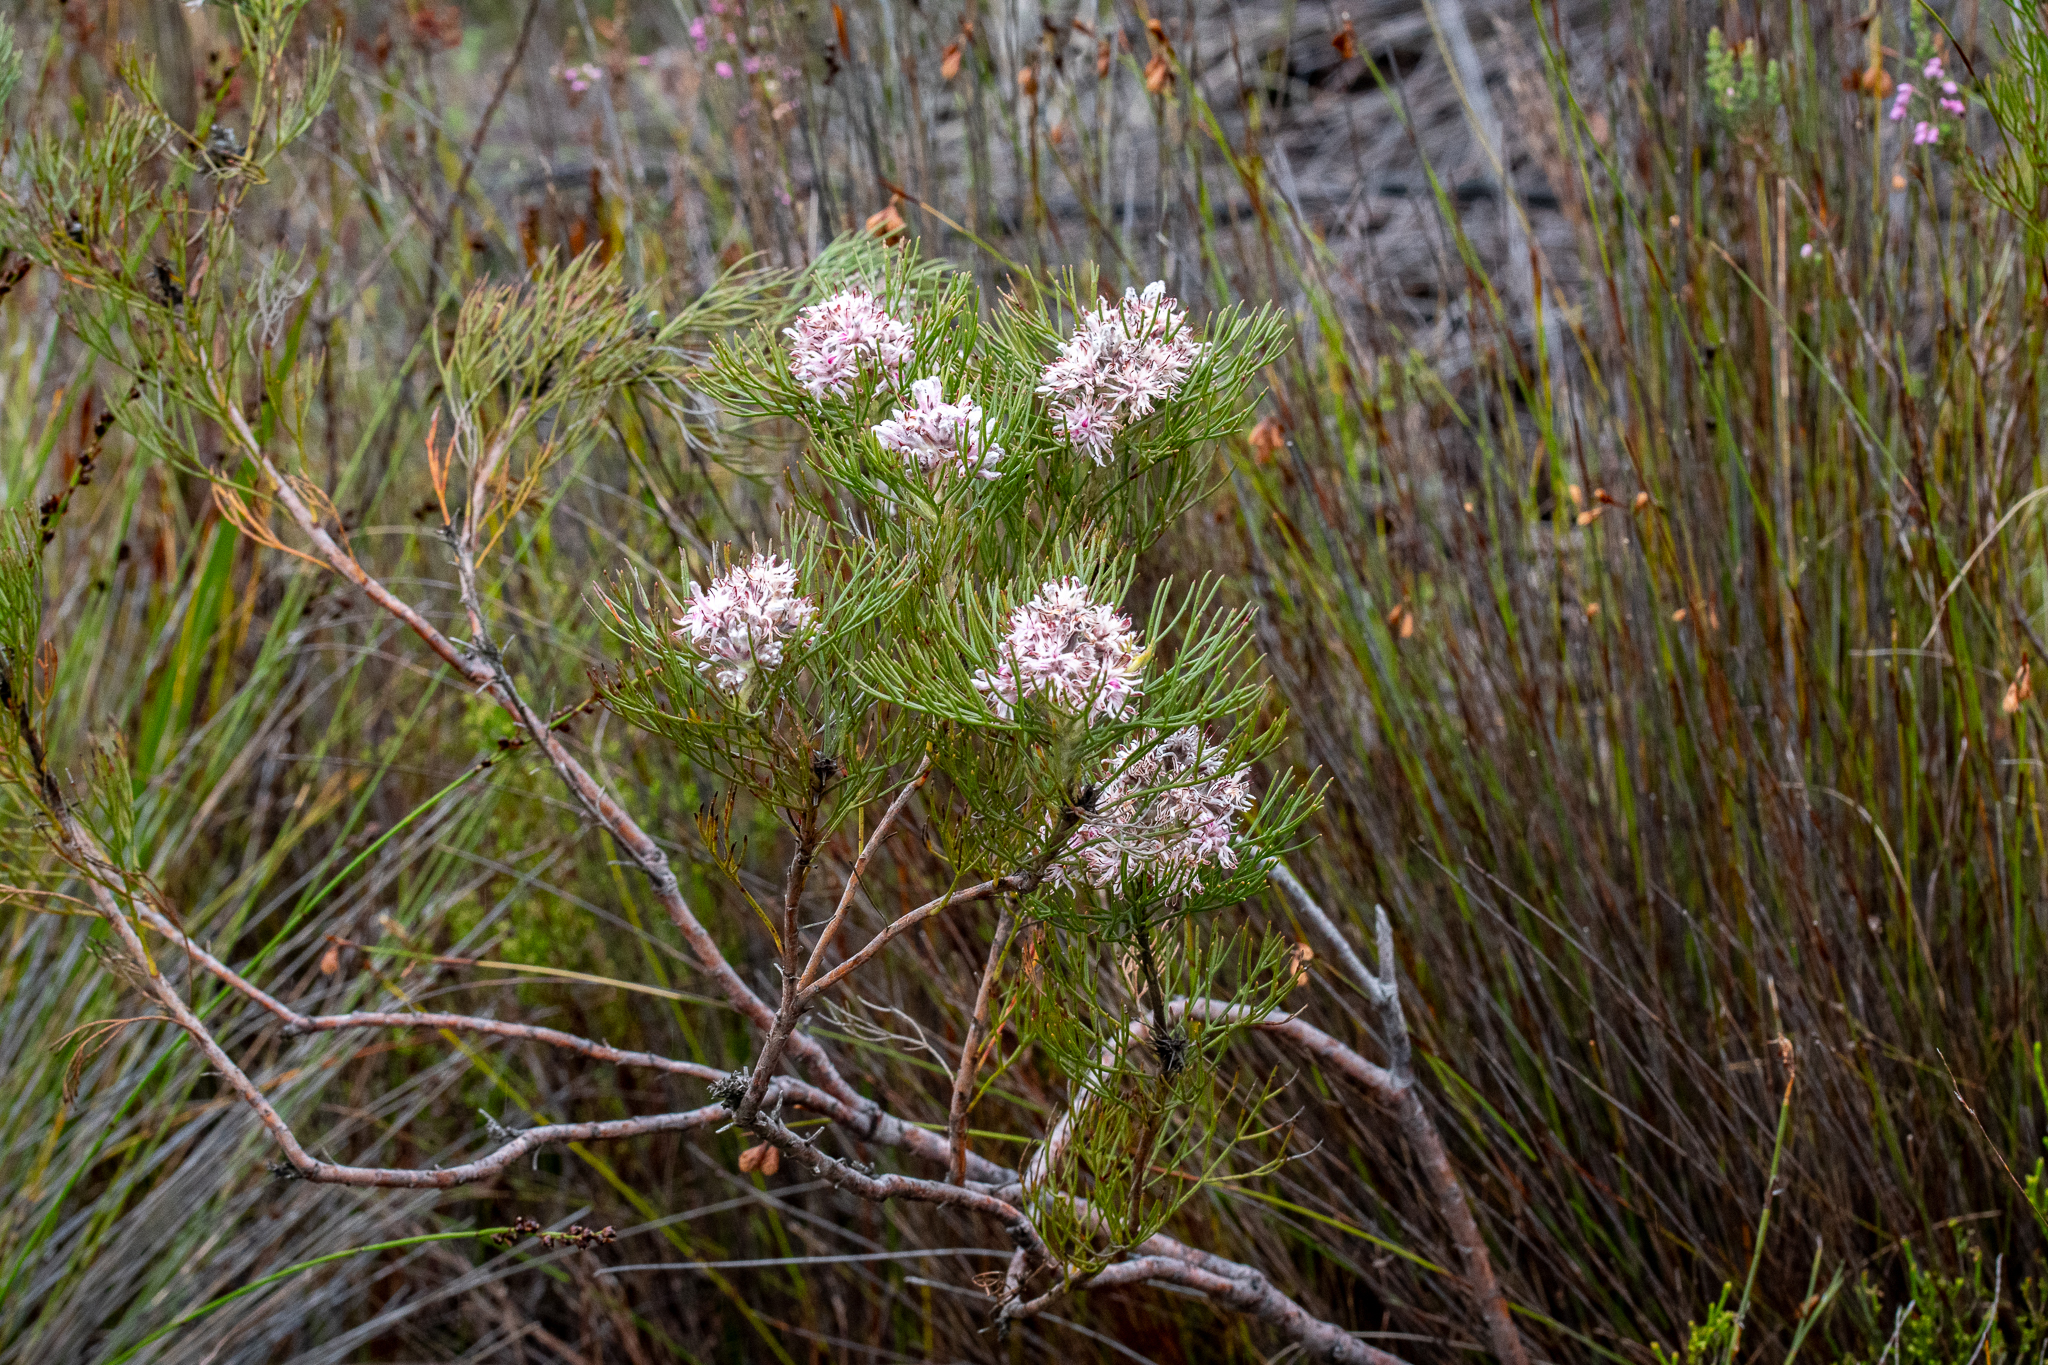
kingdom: Plantae
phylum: Tracheophyta
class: Magnoliopsida
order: Proteales
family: Proteaceae
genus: Serruria
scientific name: Serruria ascendens
